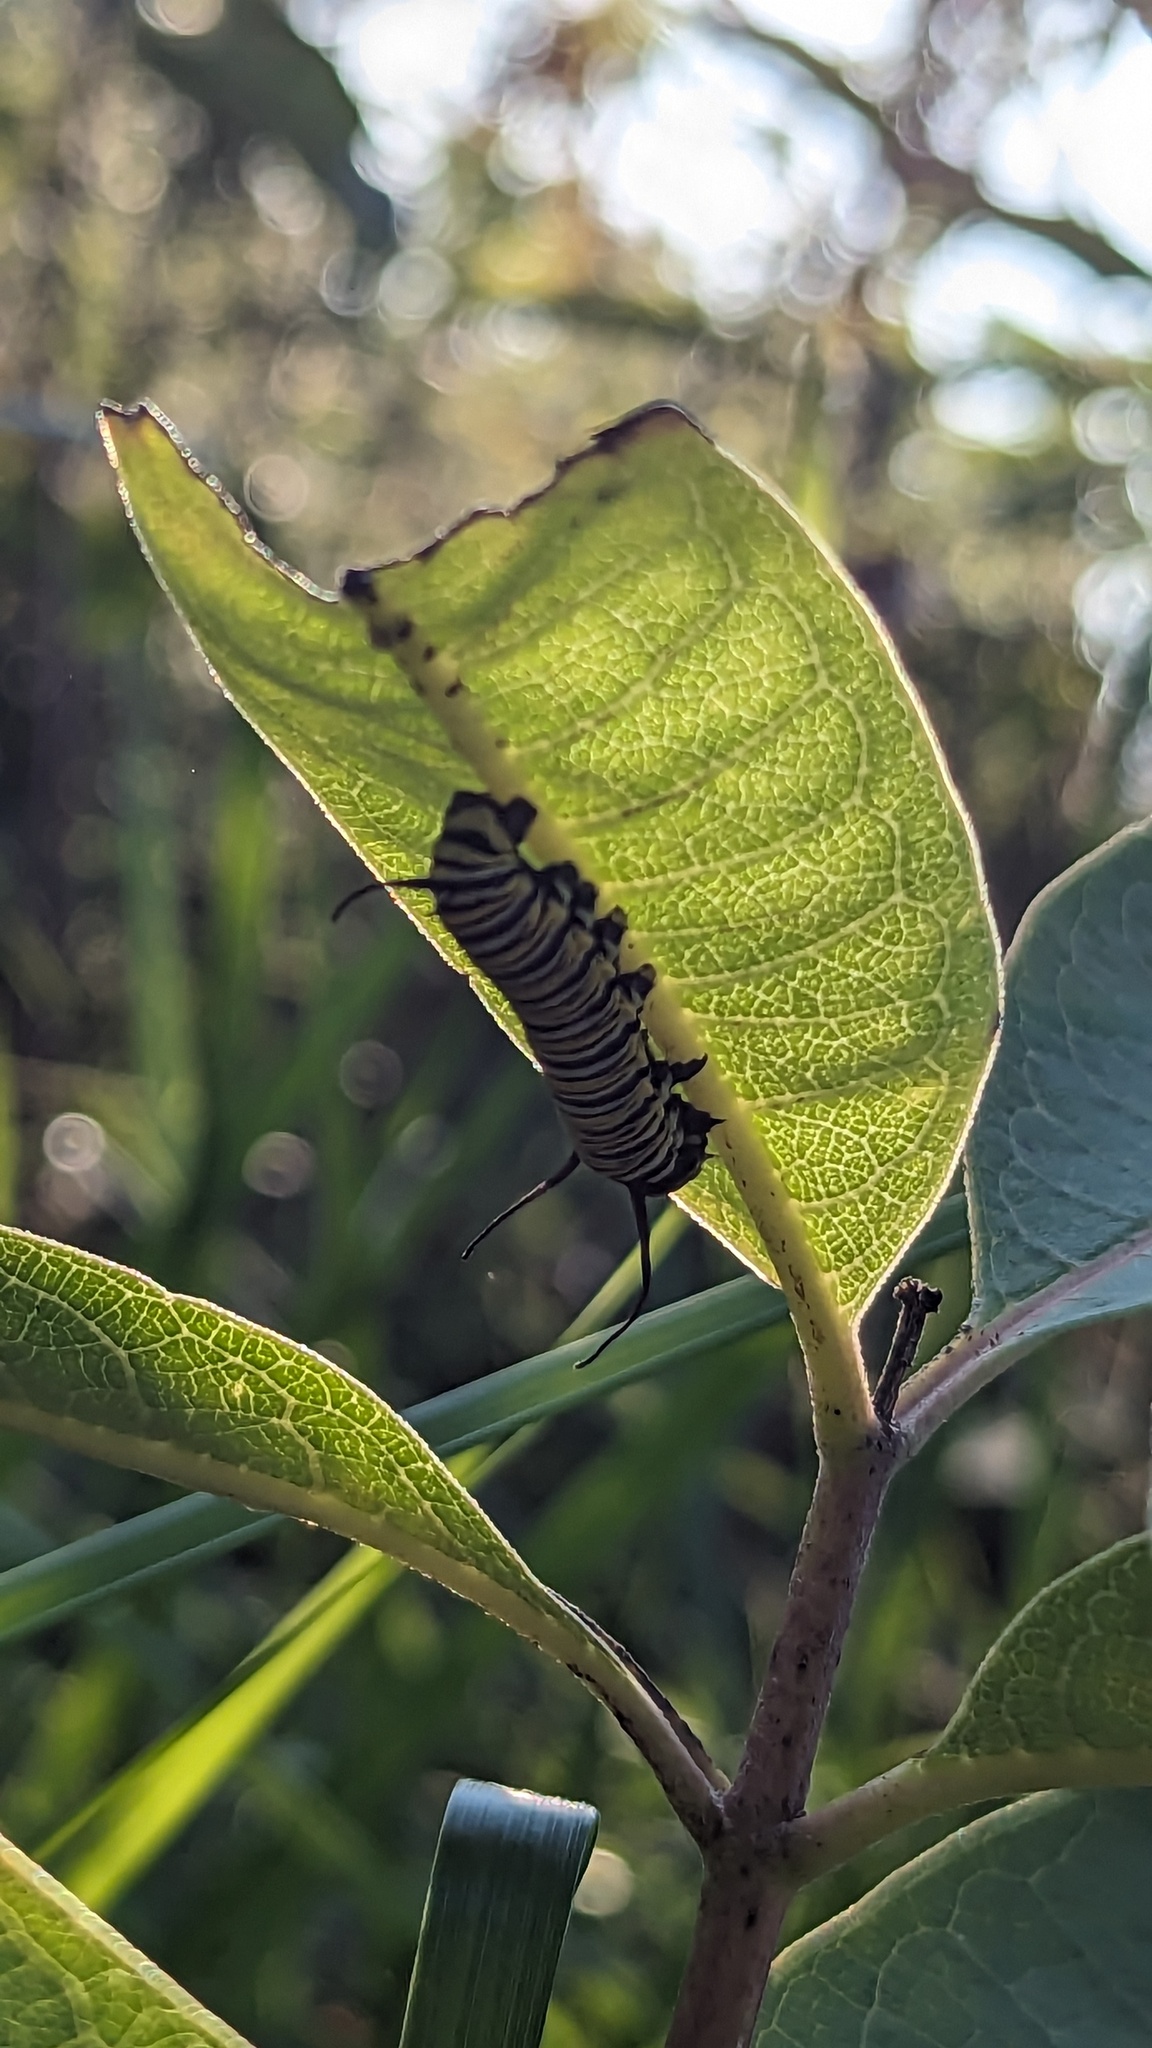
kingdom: Animalia
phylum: Arthropoda
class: Insecta
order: Lepidoptera
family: Nymphalidae
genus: Danaus
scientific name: Danaus plexippus
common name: Monarch
